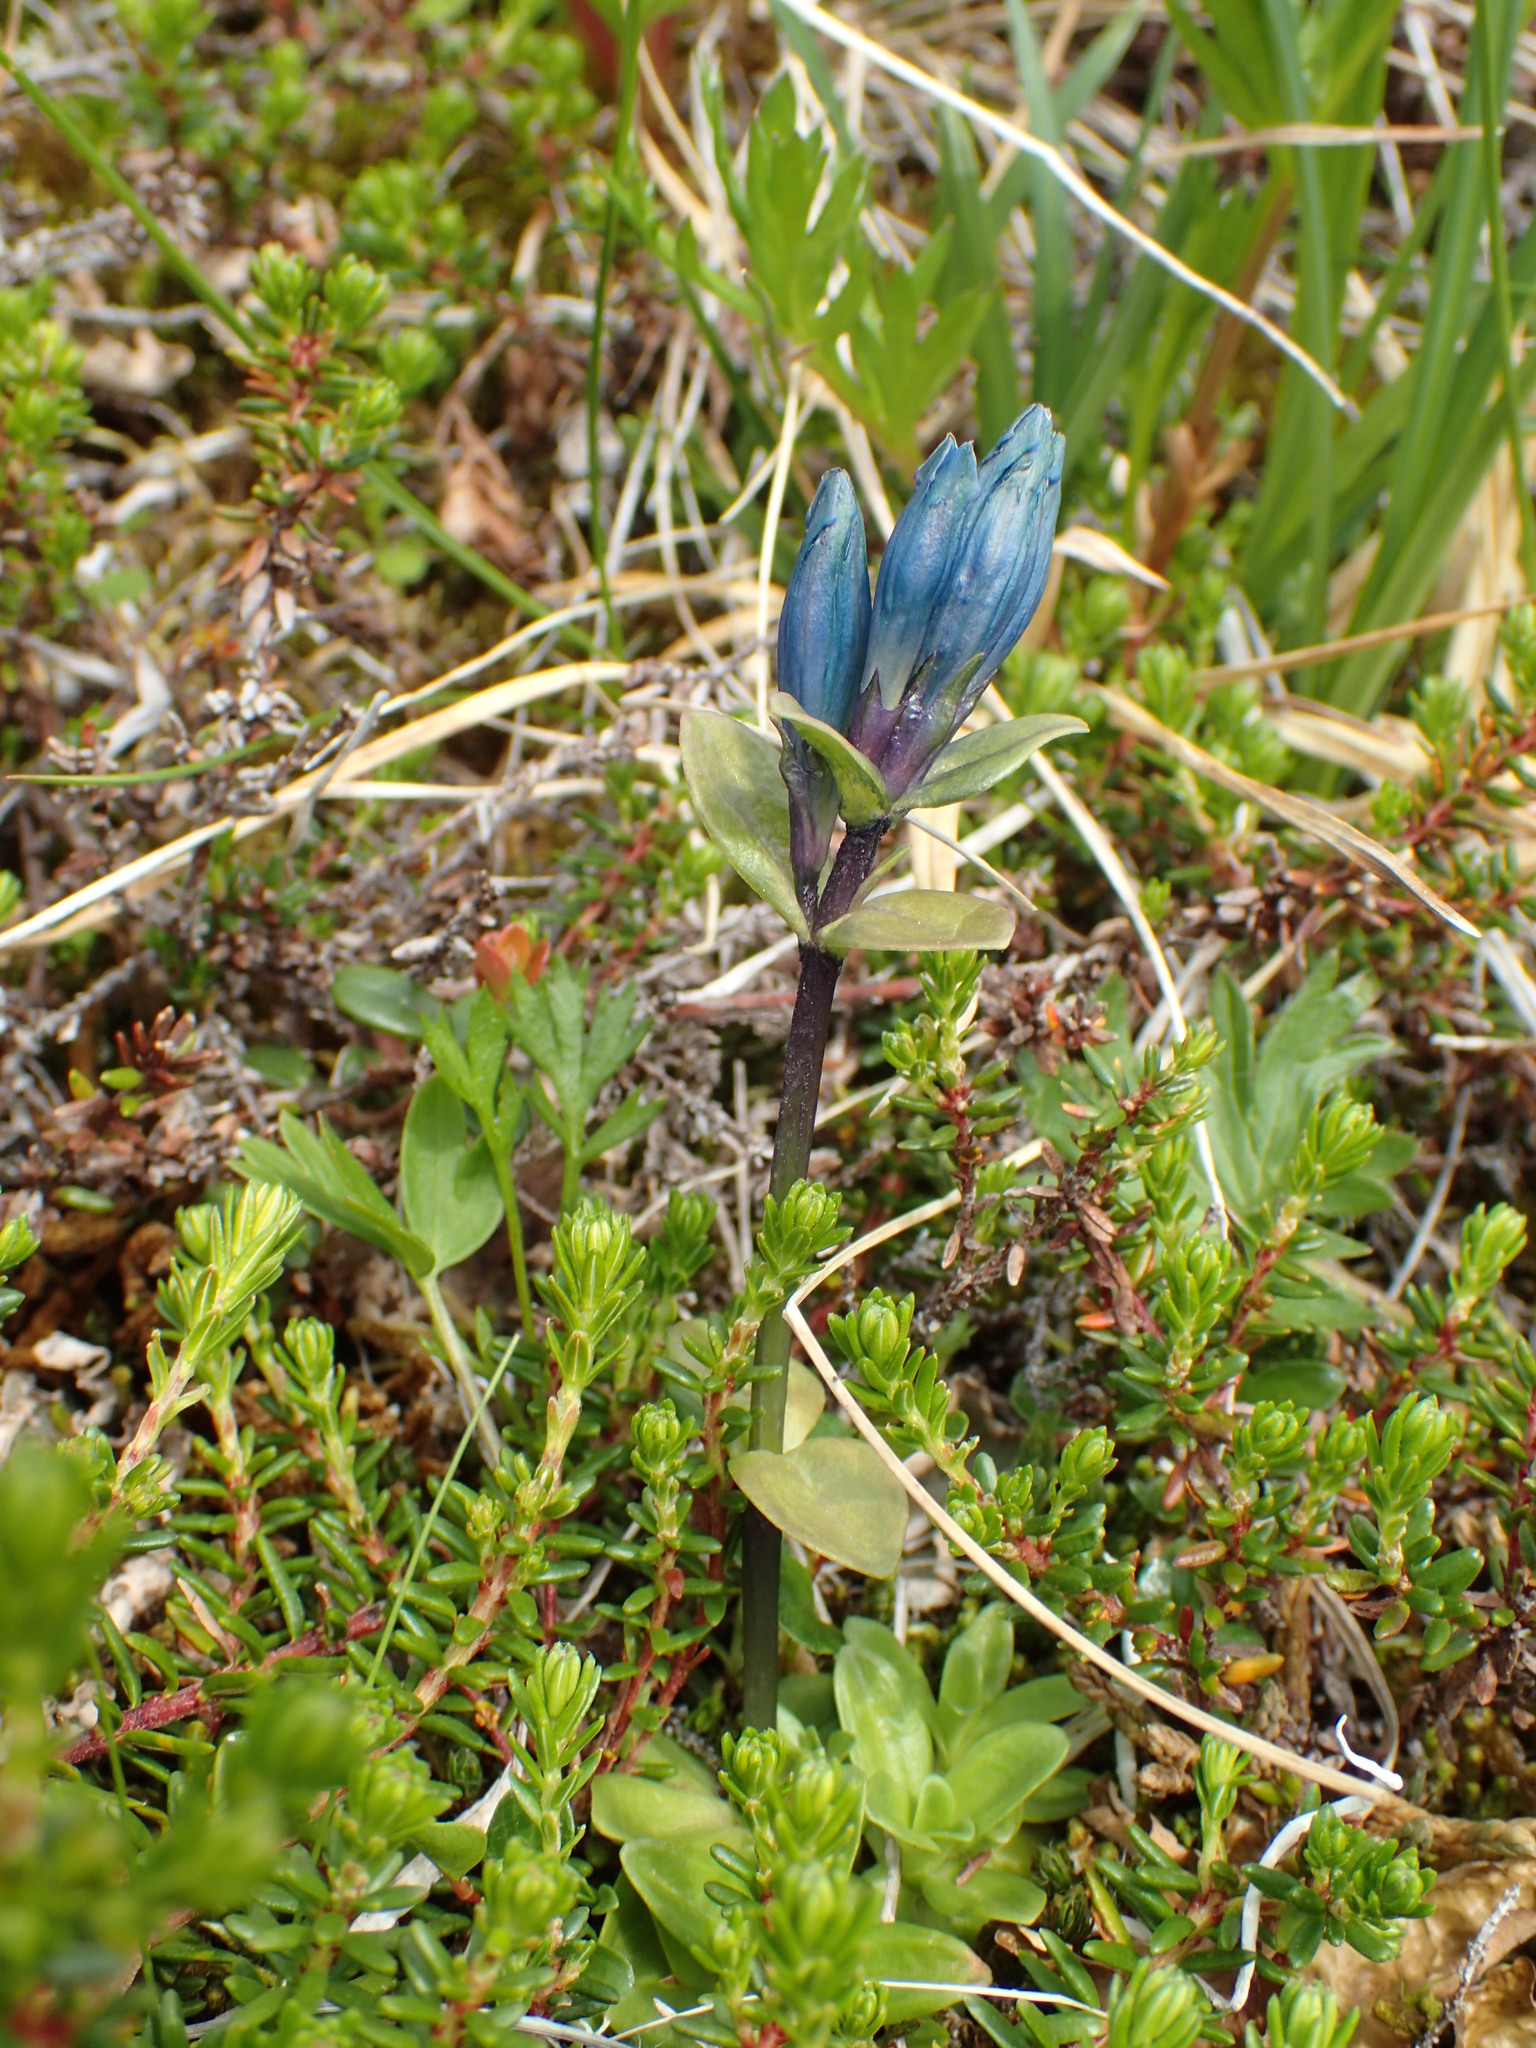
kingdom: Plantae
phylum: Tracheophyta
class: Magnoliopsida
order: Gentianales
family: Gentianaceae
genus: Gentiana
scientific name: Gentiana glauca
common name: Alpine gentian
